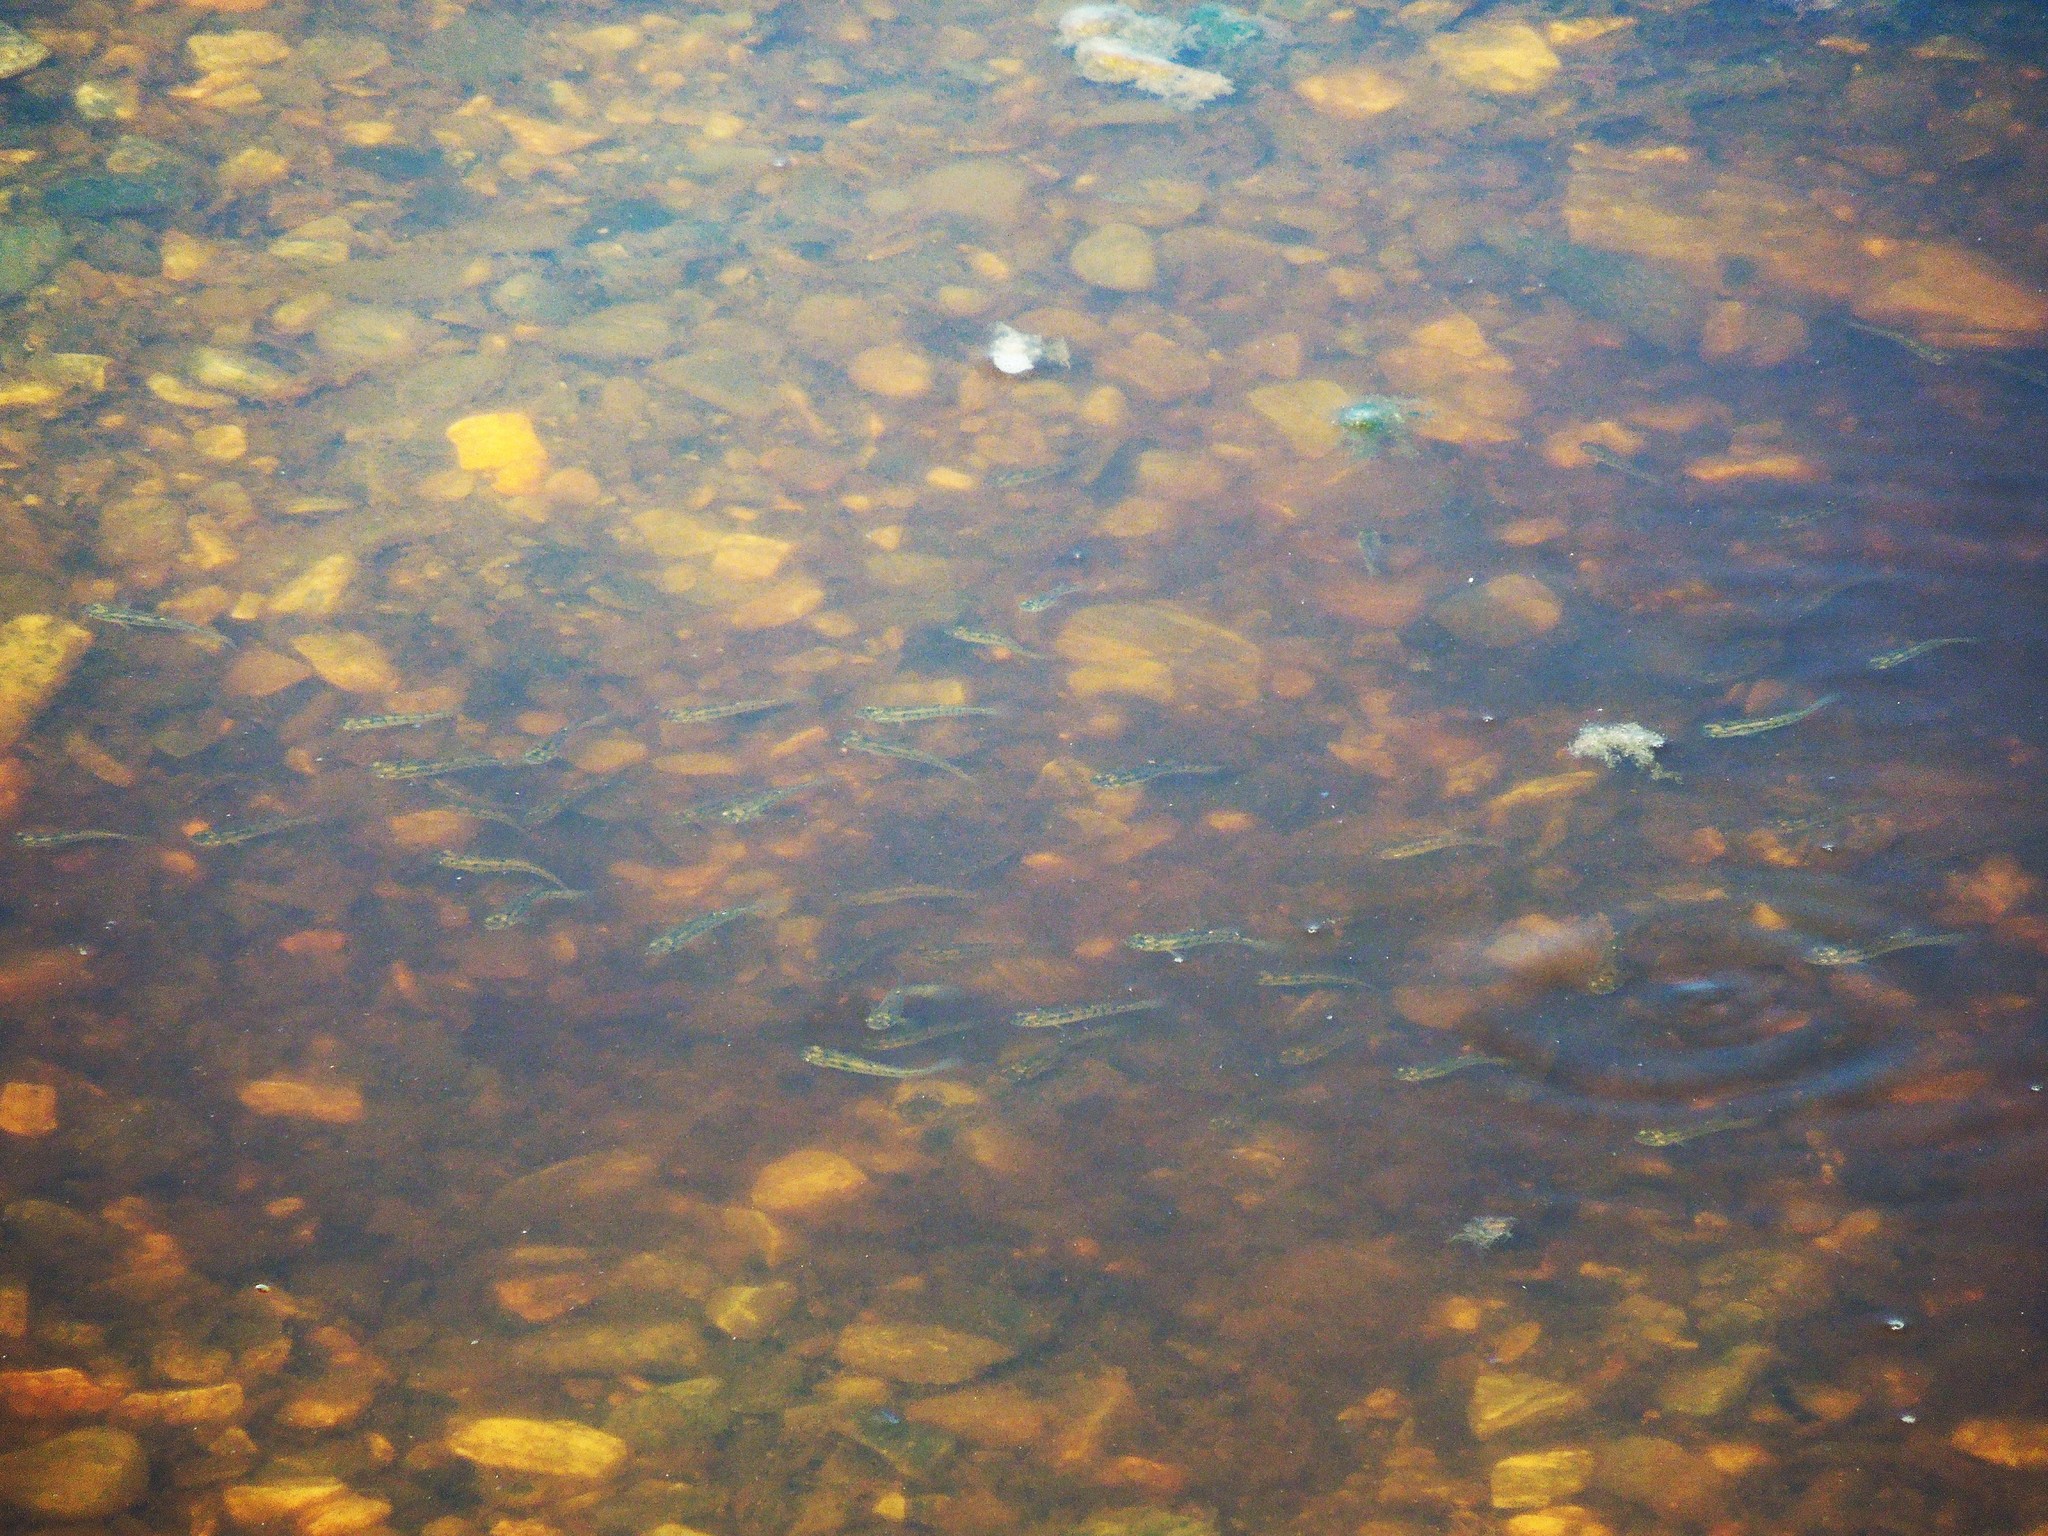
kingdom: Animalia
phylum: Chordata
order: Cyprinodontiformes
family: Fundulidae
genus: Fundulus
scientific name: Fundulus
